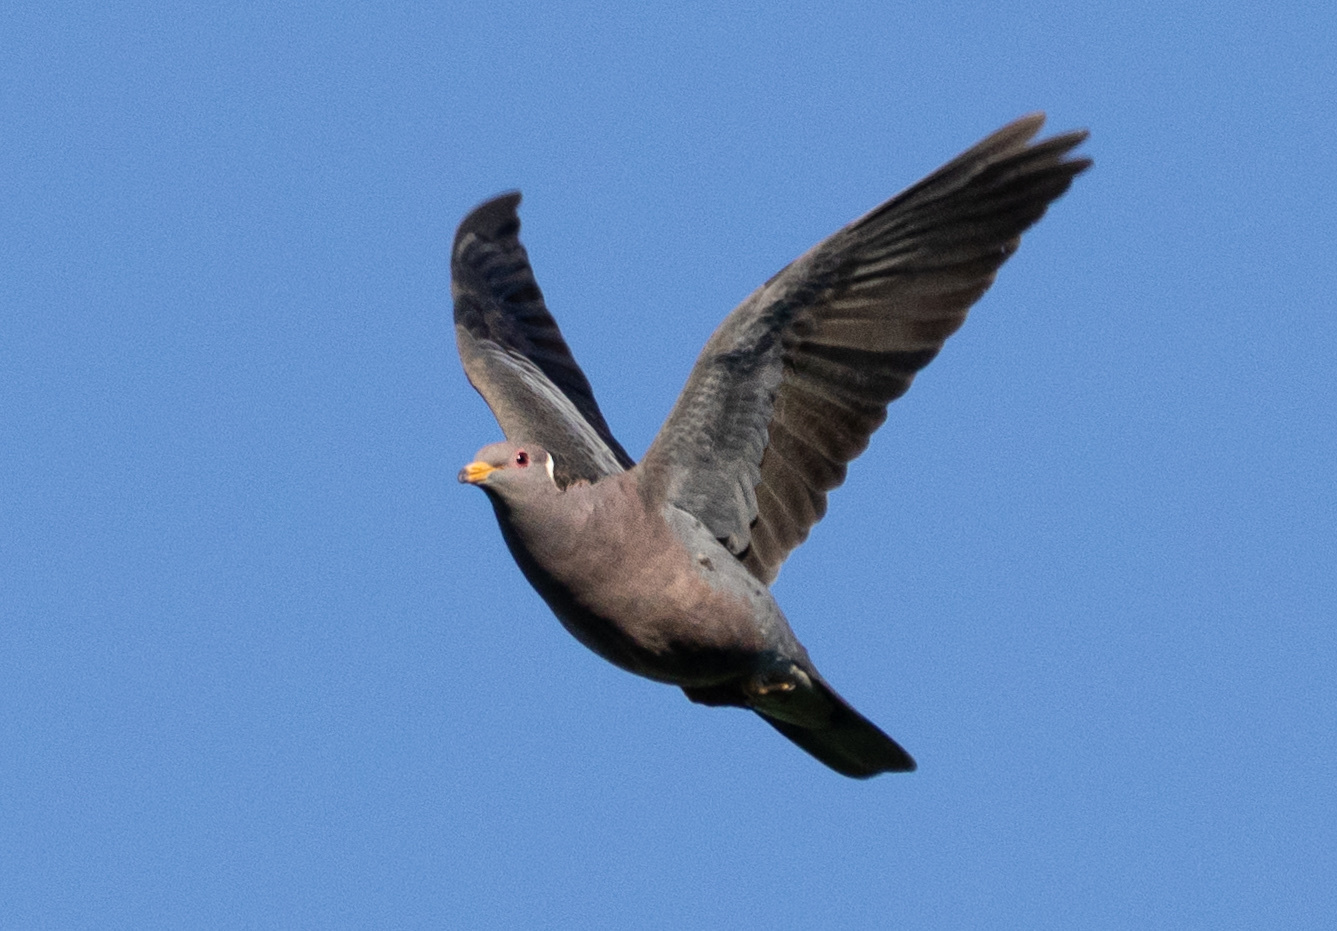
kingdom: Animalia
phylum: Chordata
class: Aves
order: Columbiformes
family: Columbidae
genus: Patagioenas
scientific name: Patagioenas fasciata
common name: Band-tailed pigeon
